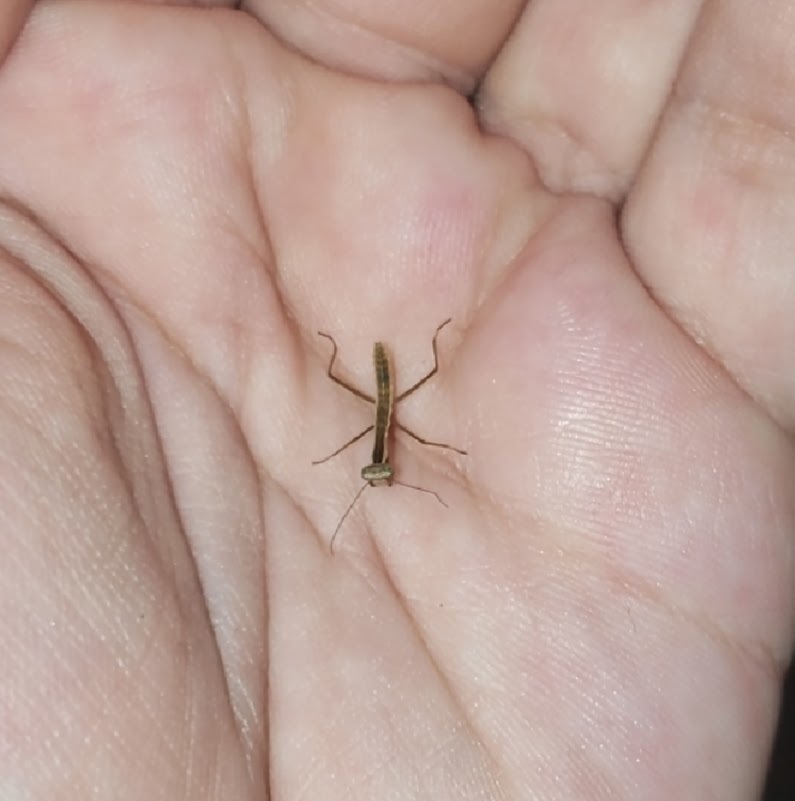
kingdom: Animalia
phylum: Arthropoda
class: Insecta
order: Mantodea
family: Mantidae
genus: Tenodera
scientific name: Tenodera sinensis
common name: Chinese mantis
